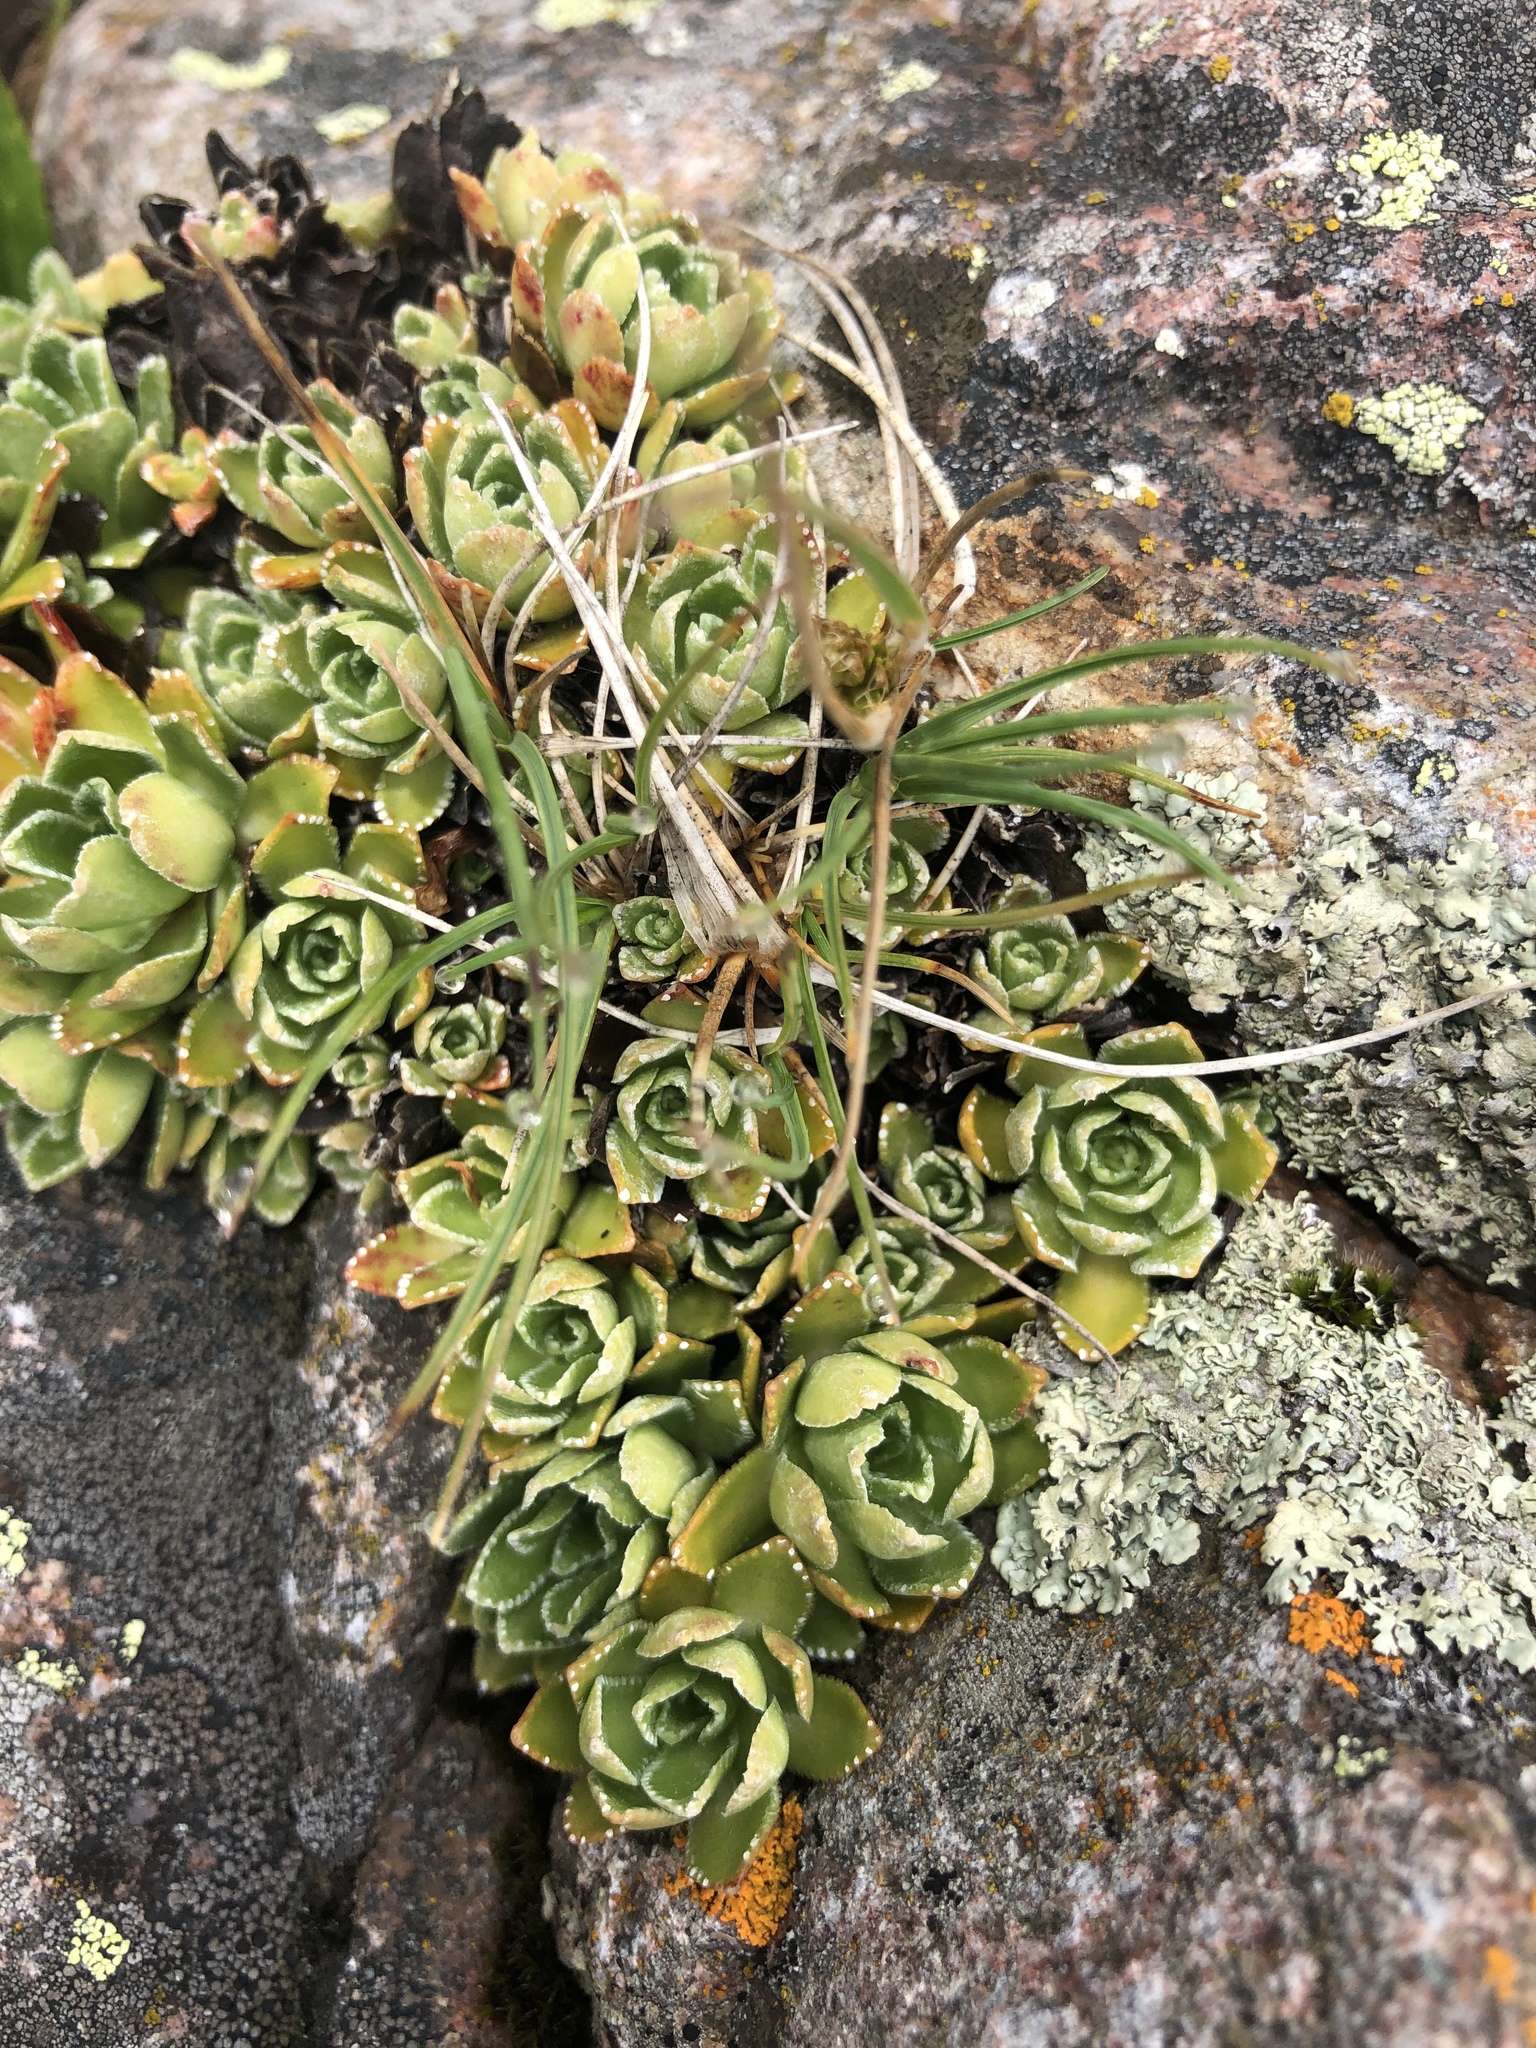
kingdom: Plantae
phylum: Tracheophyta
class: Magnoliopsida
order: Saxifragales
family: Saxifragaceae
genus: Saxifraga
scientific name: Saxifraga paniculata
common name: Livelong saxifrage
